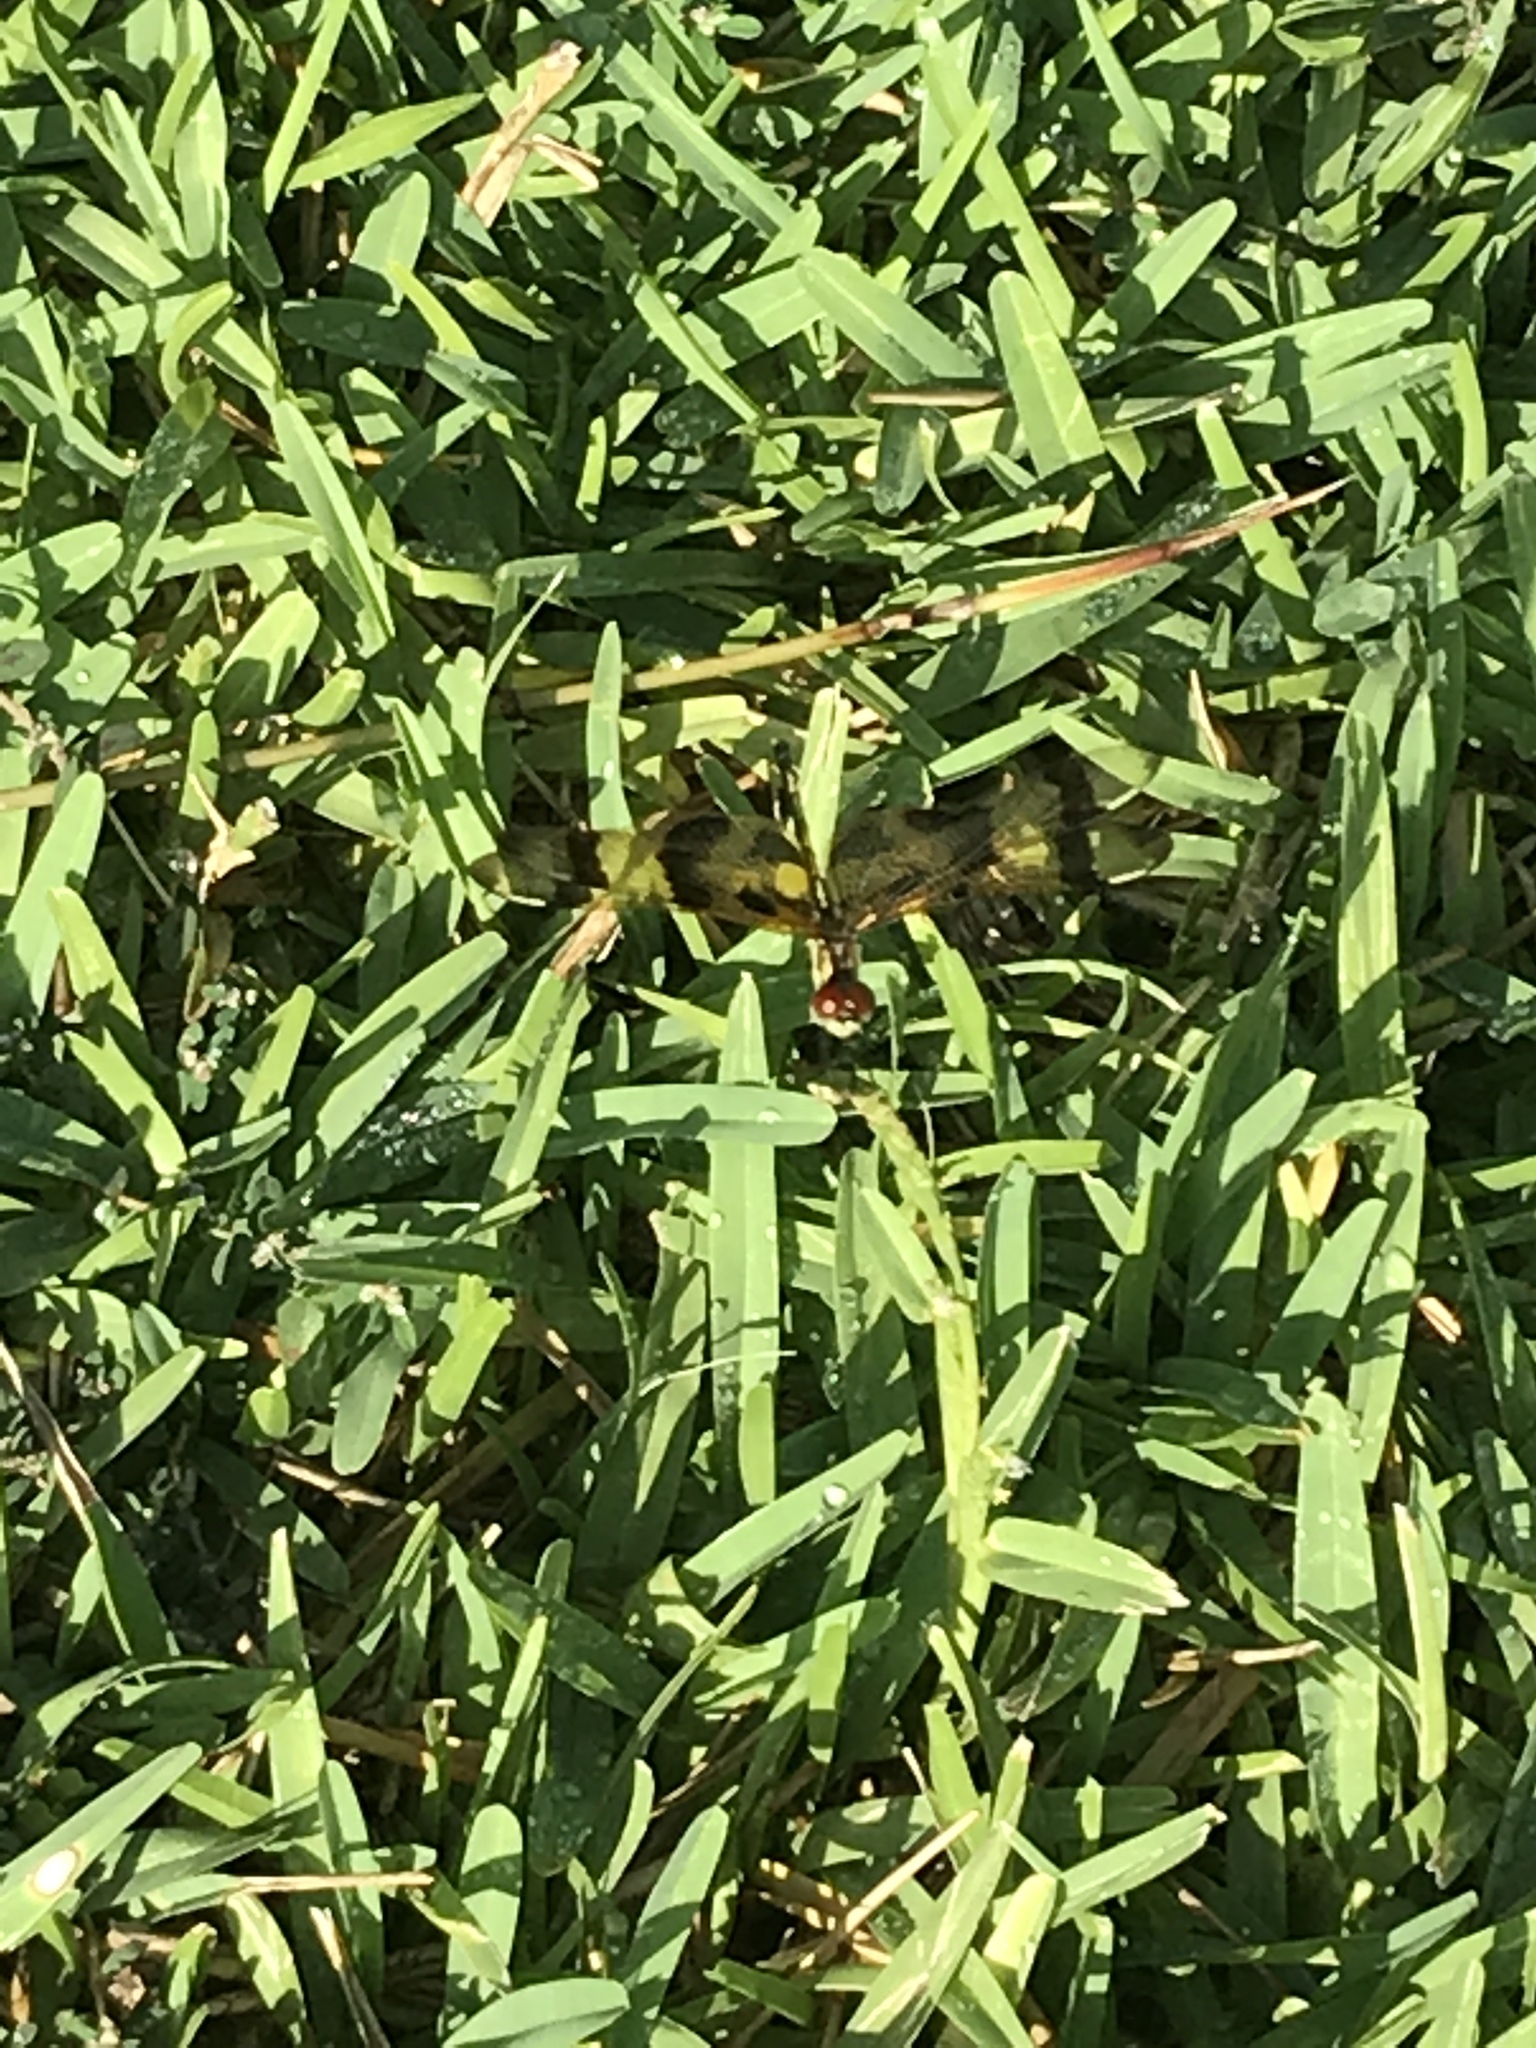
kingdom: Animalia
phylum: Arthropoda
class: Insecta
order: Odonata
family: Libellulidae
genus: Celithemis
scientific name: Celithemis eponina
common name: Halloween pennant
